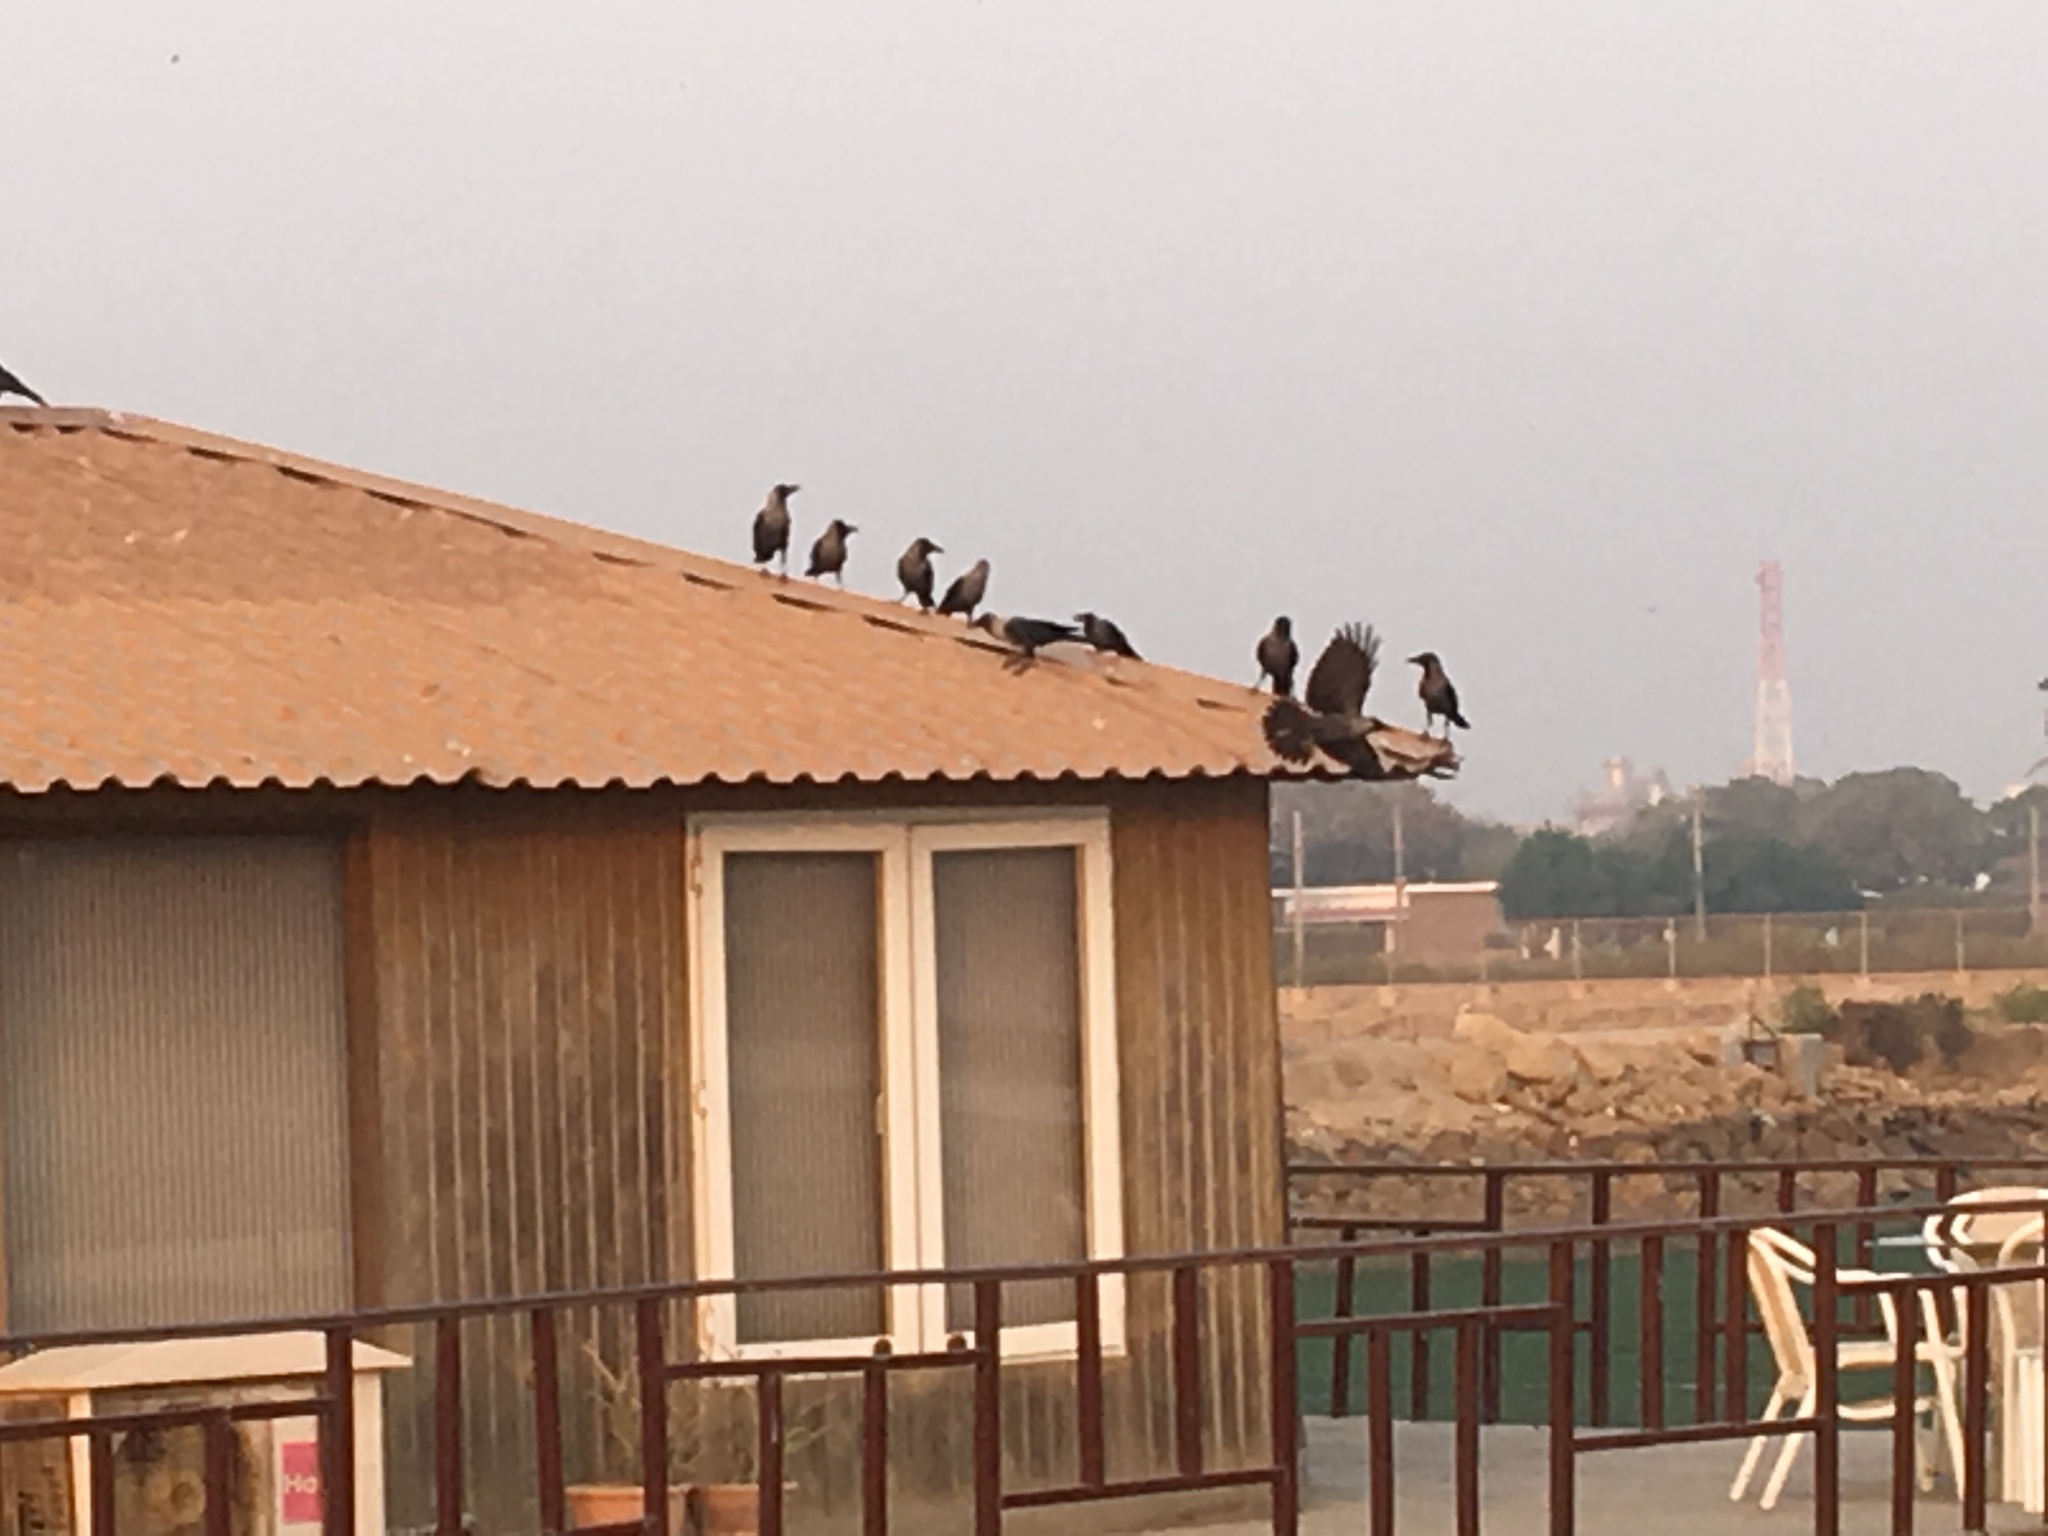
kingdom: Animalia
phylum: Chordata
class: Aves
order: Passeriformes
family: Corvidae
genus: Corvus
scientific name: Corvus splendens
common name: House crow
